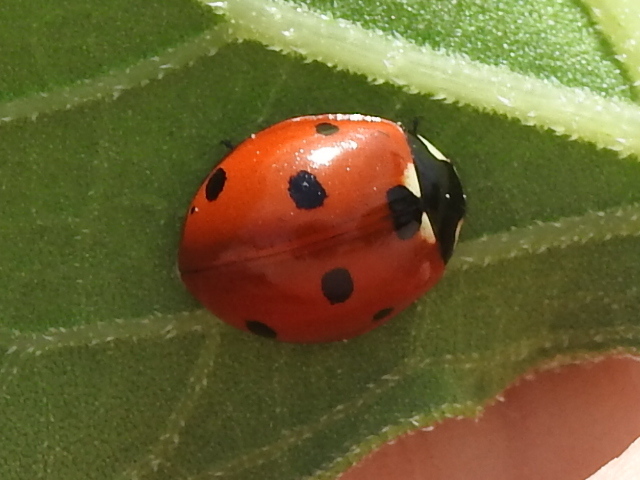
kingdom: Animalia
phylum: Arthropoda
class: Insecta
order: Coleoptera
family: Coccinellidae
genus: Coccinella
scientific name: Coccinella septempunctata
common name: Sevenspotted lady beetle
